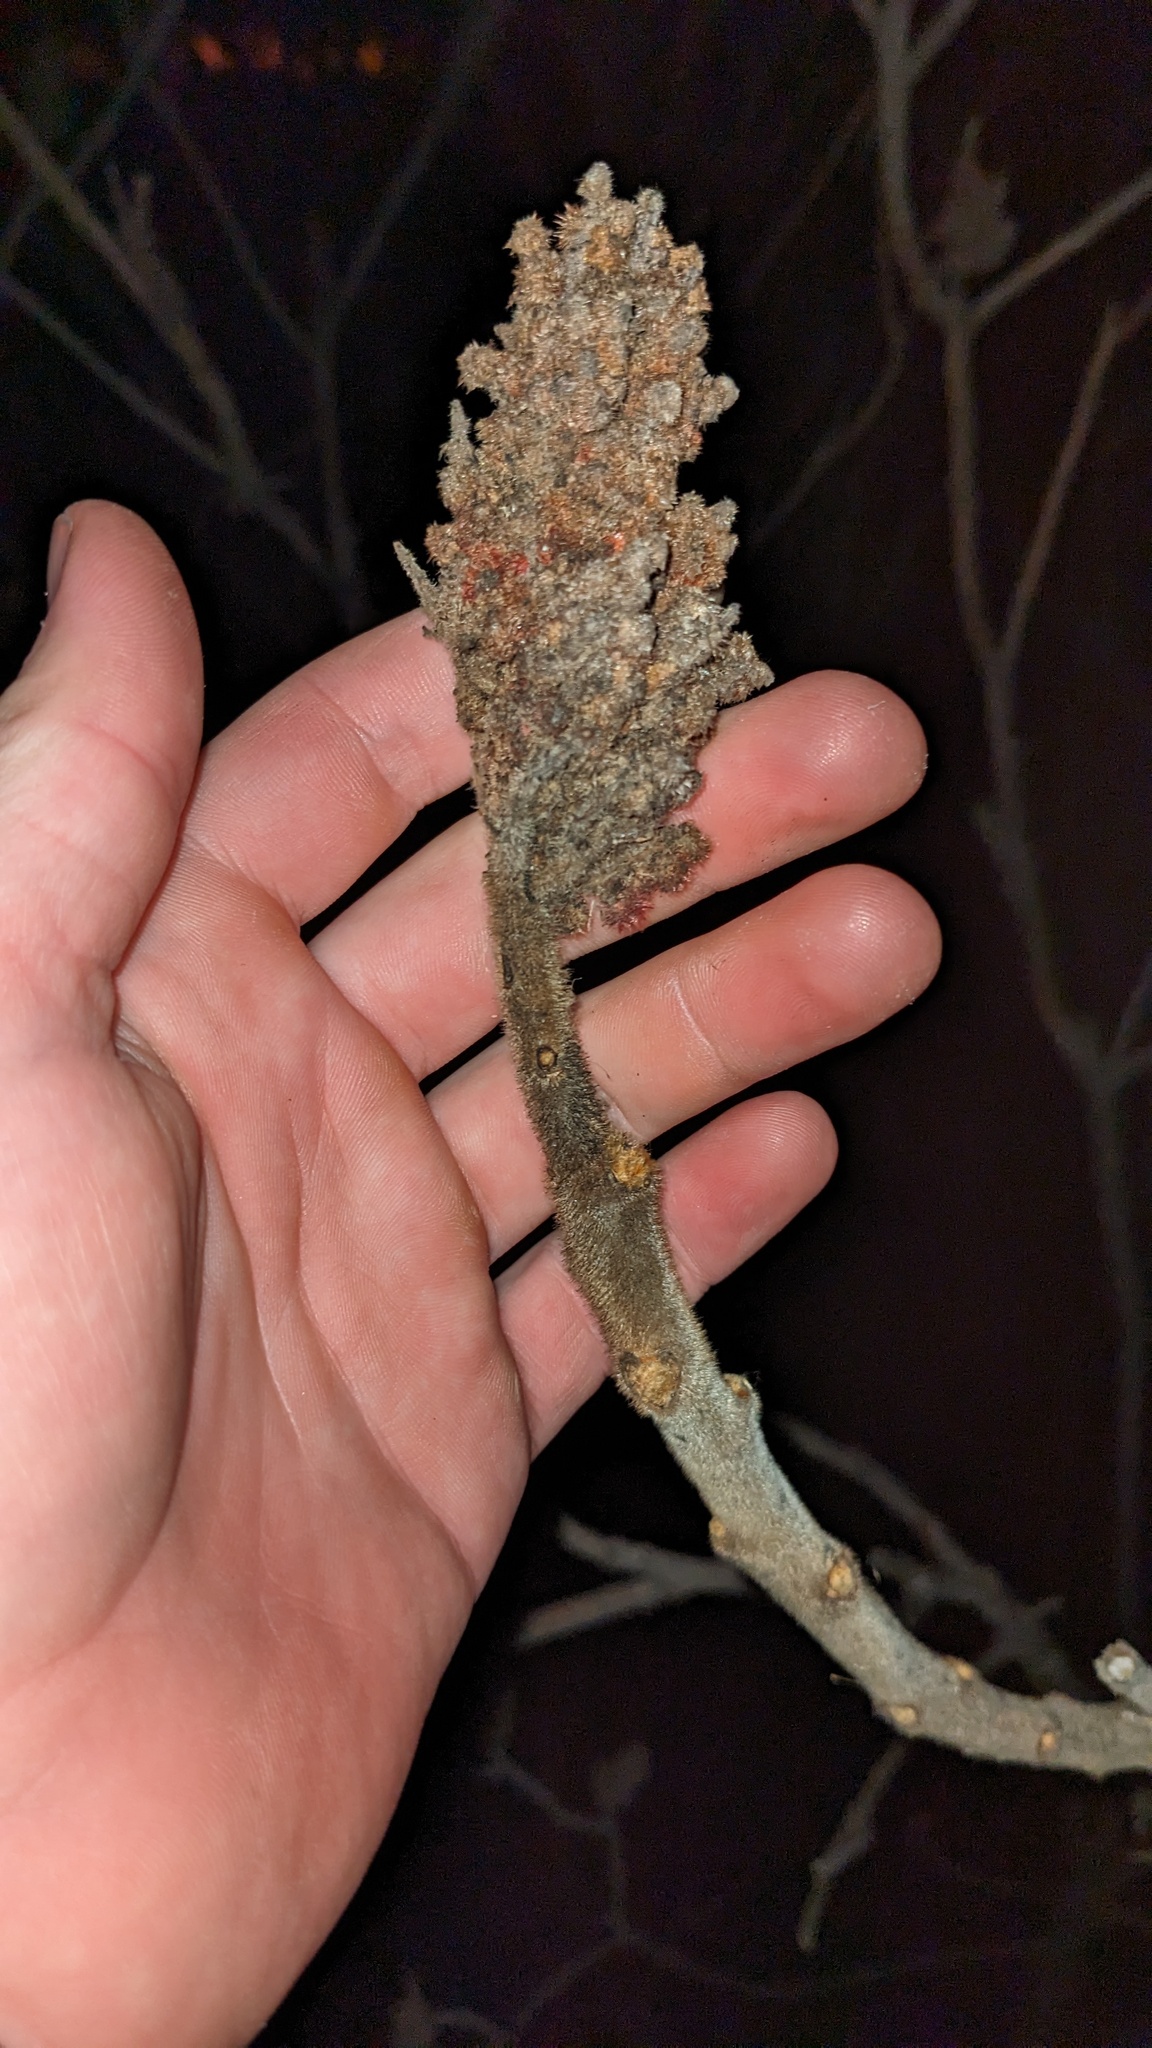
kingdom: Plantae
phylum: Tracheophyta
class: Magnoliopsida
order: Sapindales
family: Anacardiaceae
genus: Rhus
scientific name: Rhus typhina
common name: Staghorn sumac
